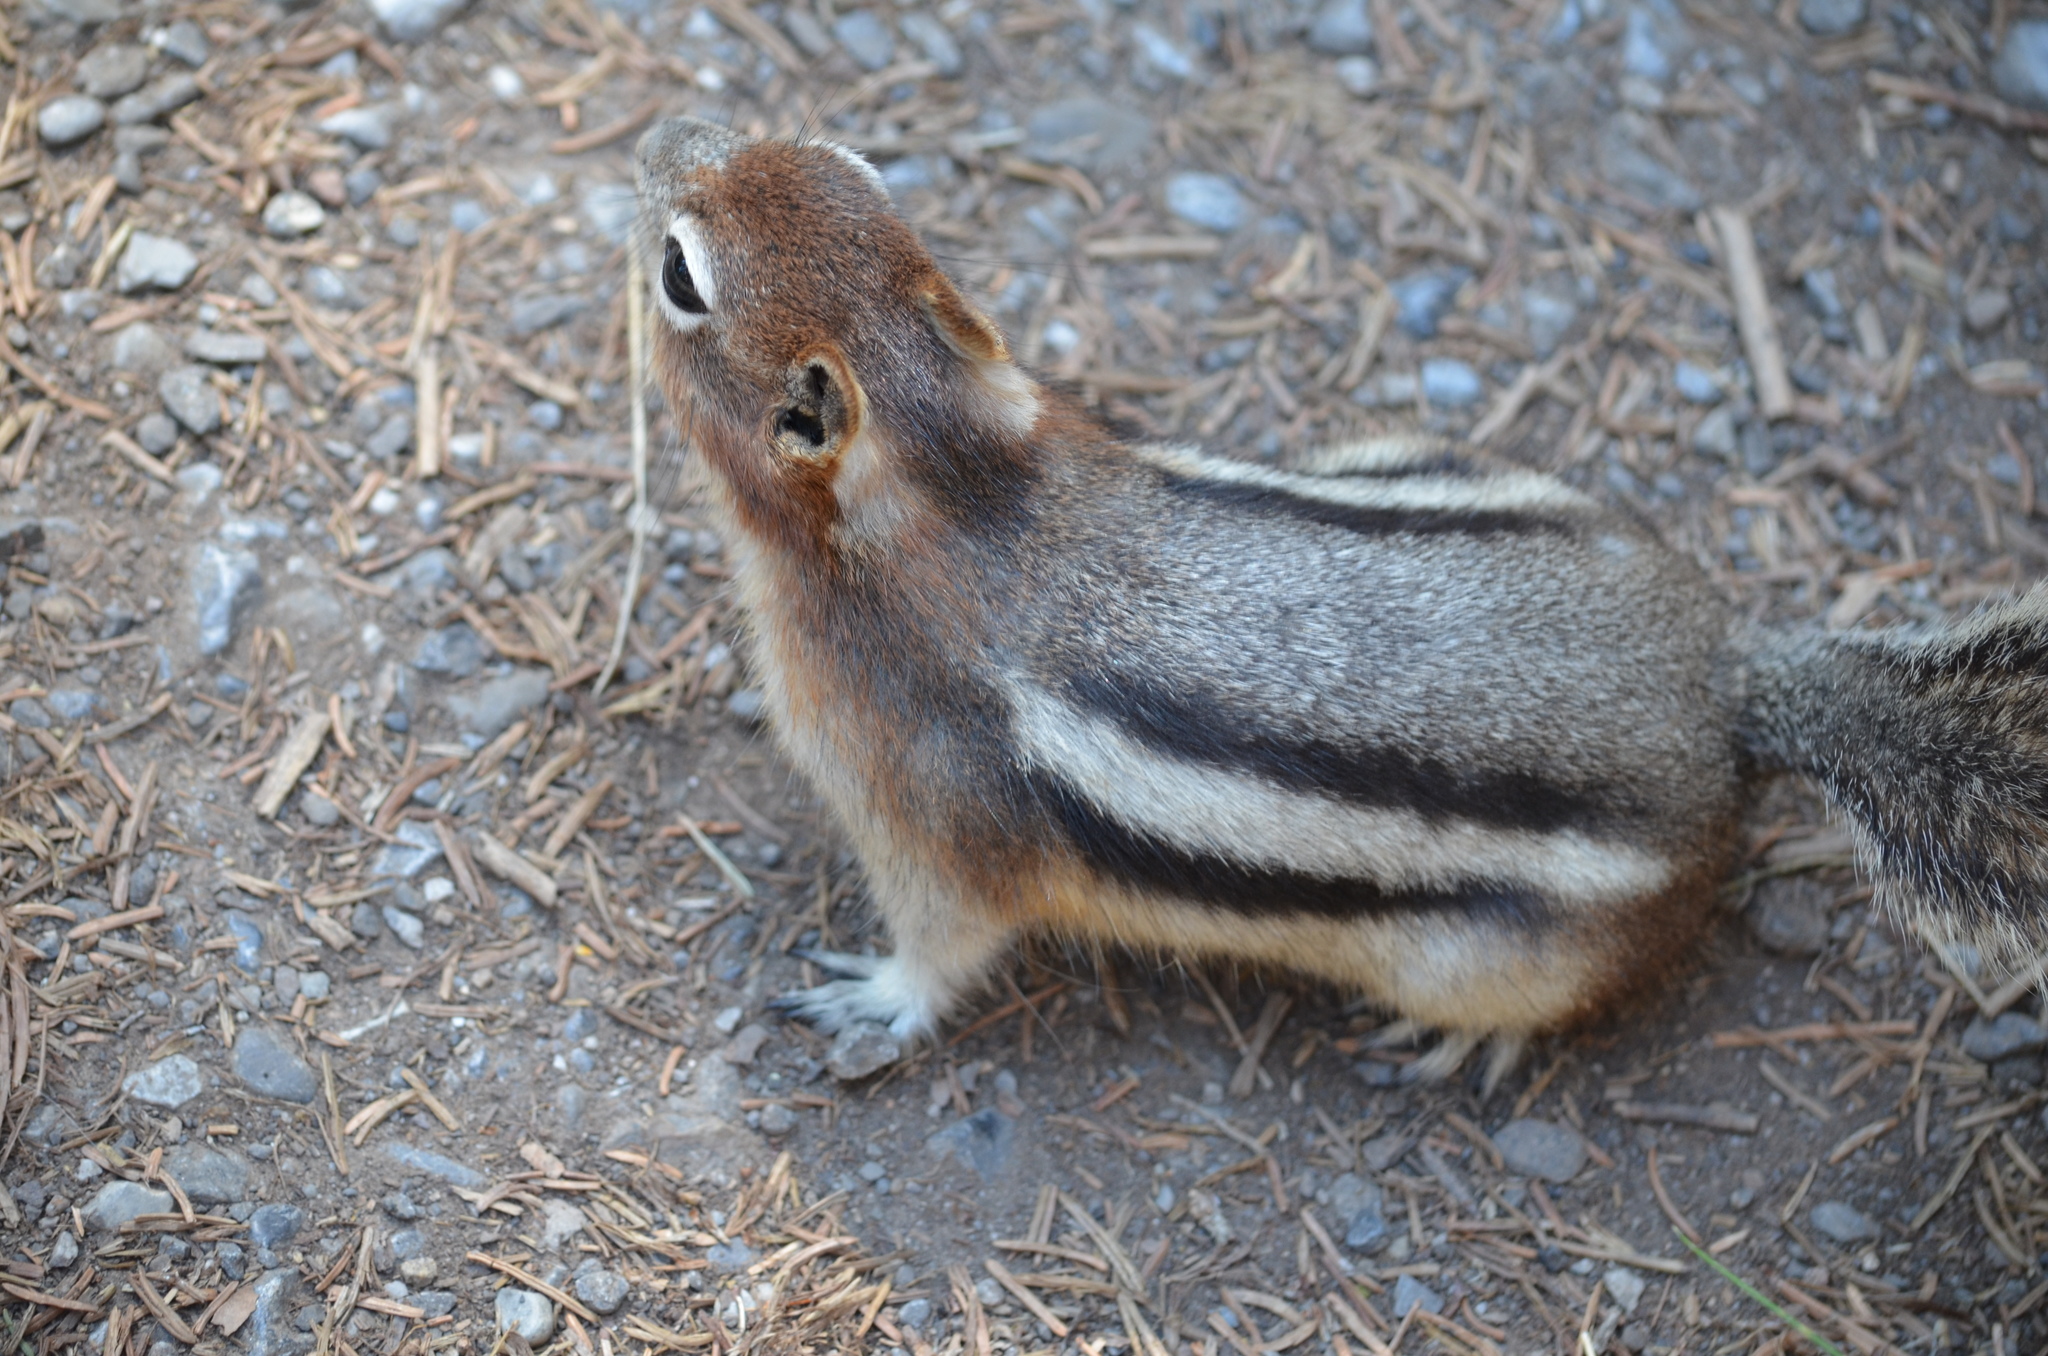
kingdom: Animalia
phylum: Chordata
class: Mammalia
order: Rodentia
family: Sciuridae
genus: Callospermophilus
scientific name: Callospermophilus lateralis
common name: Golden-mantled ground squirrel
